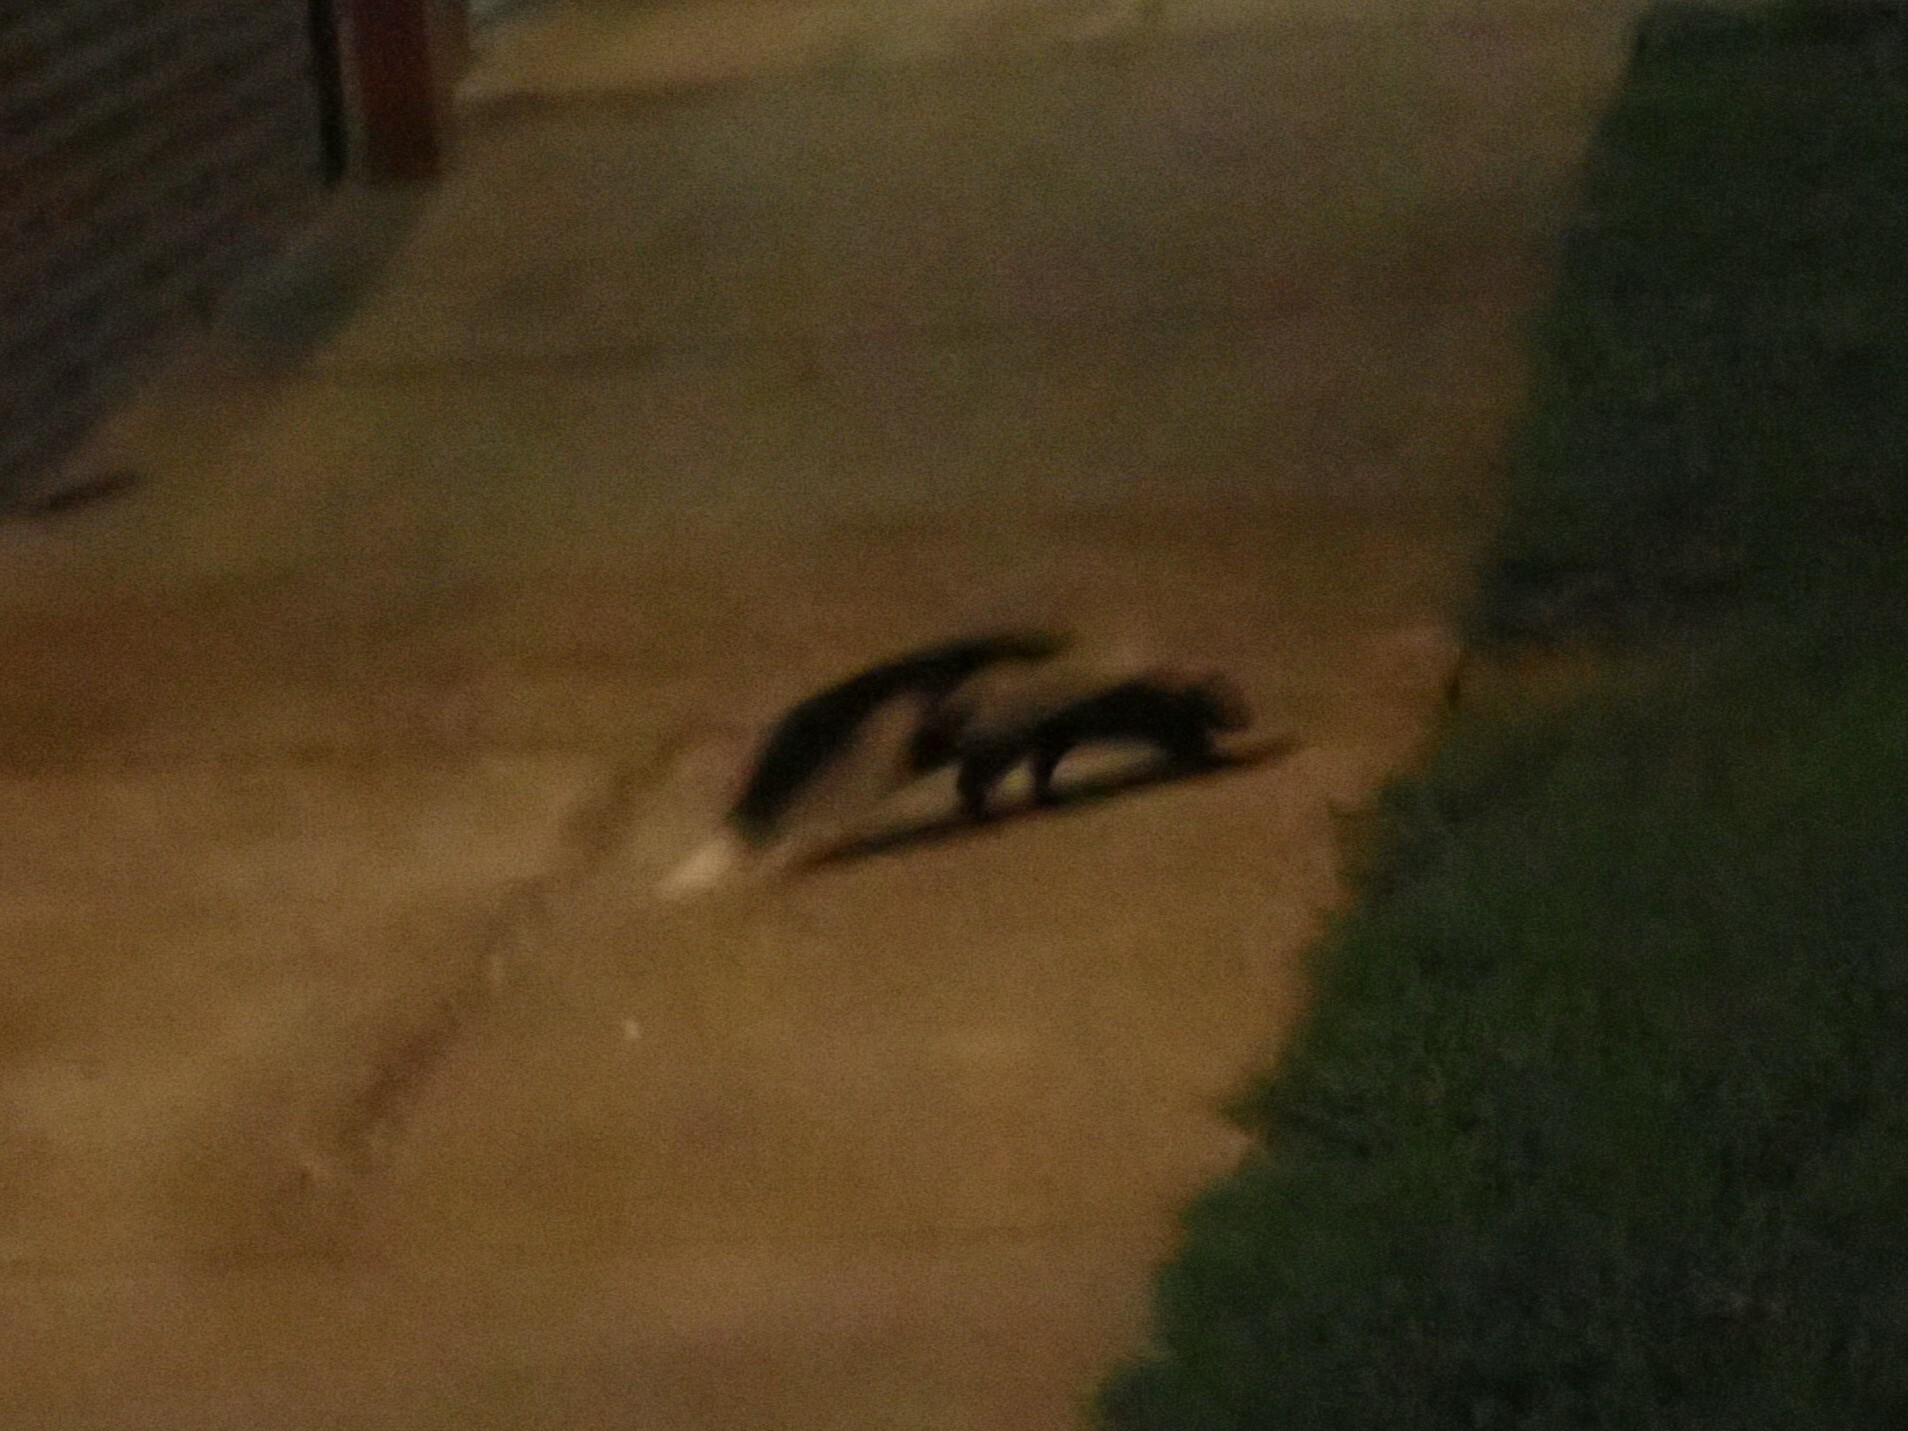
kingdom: Animalia
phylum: Chordata
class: Mammalia
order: Carnivora
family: Mephitidae
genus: Mephitis
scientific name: Mephitis mephitis
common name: Striped skunk
